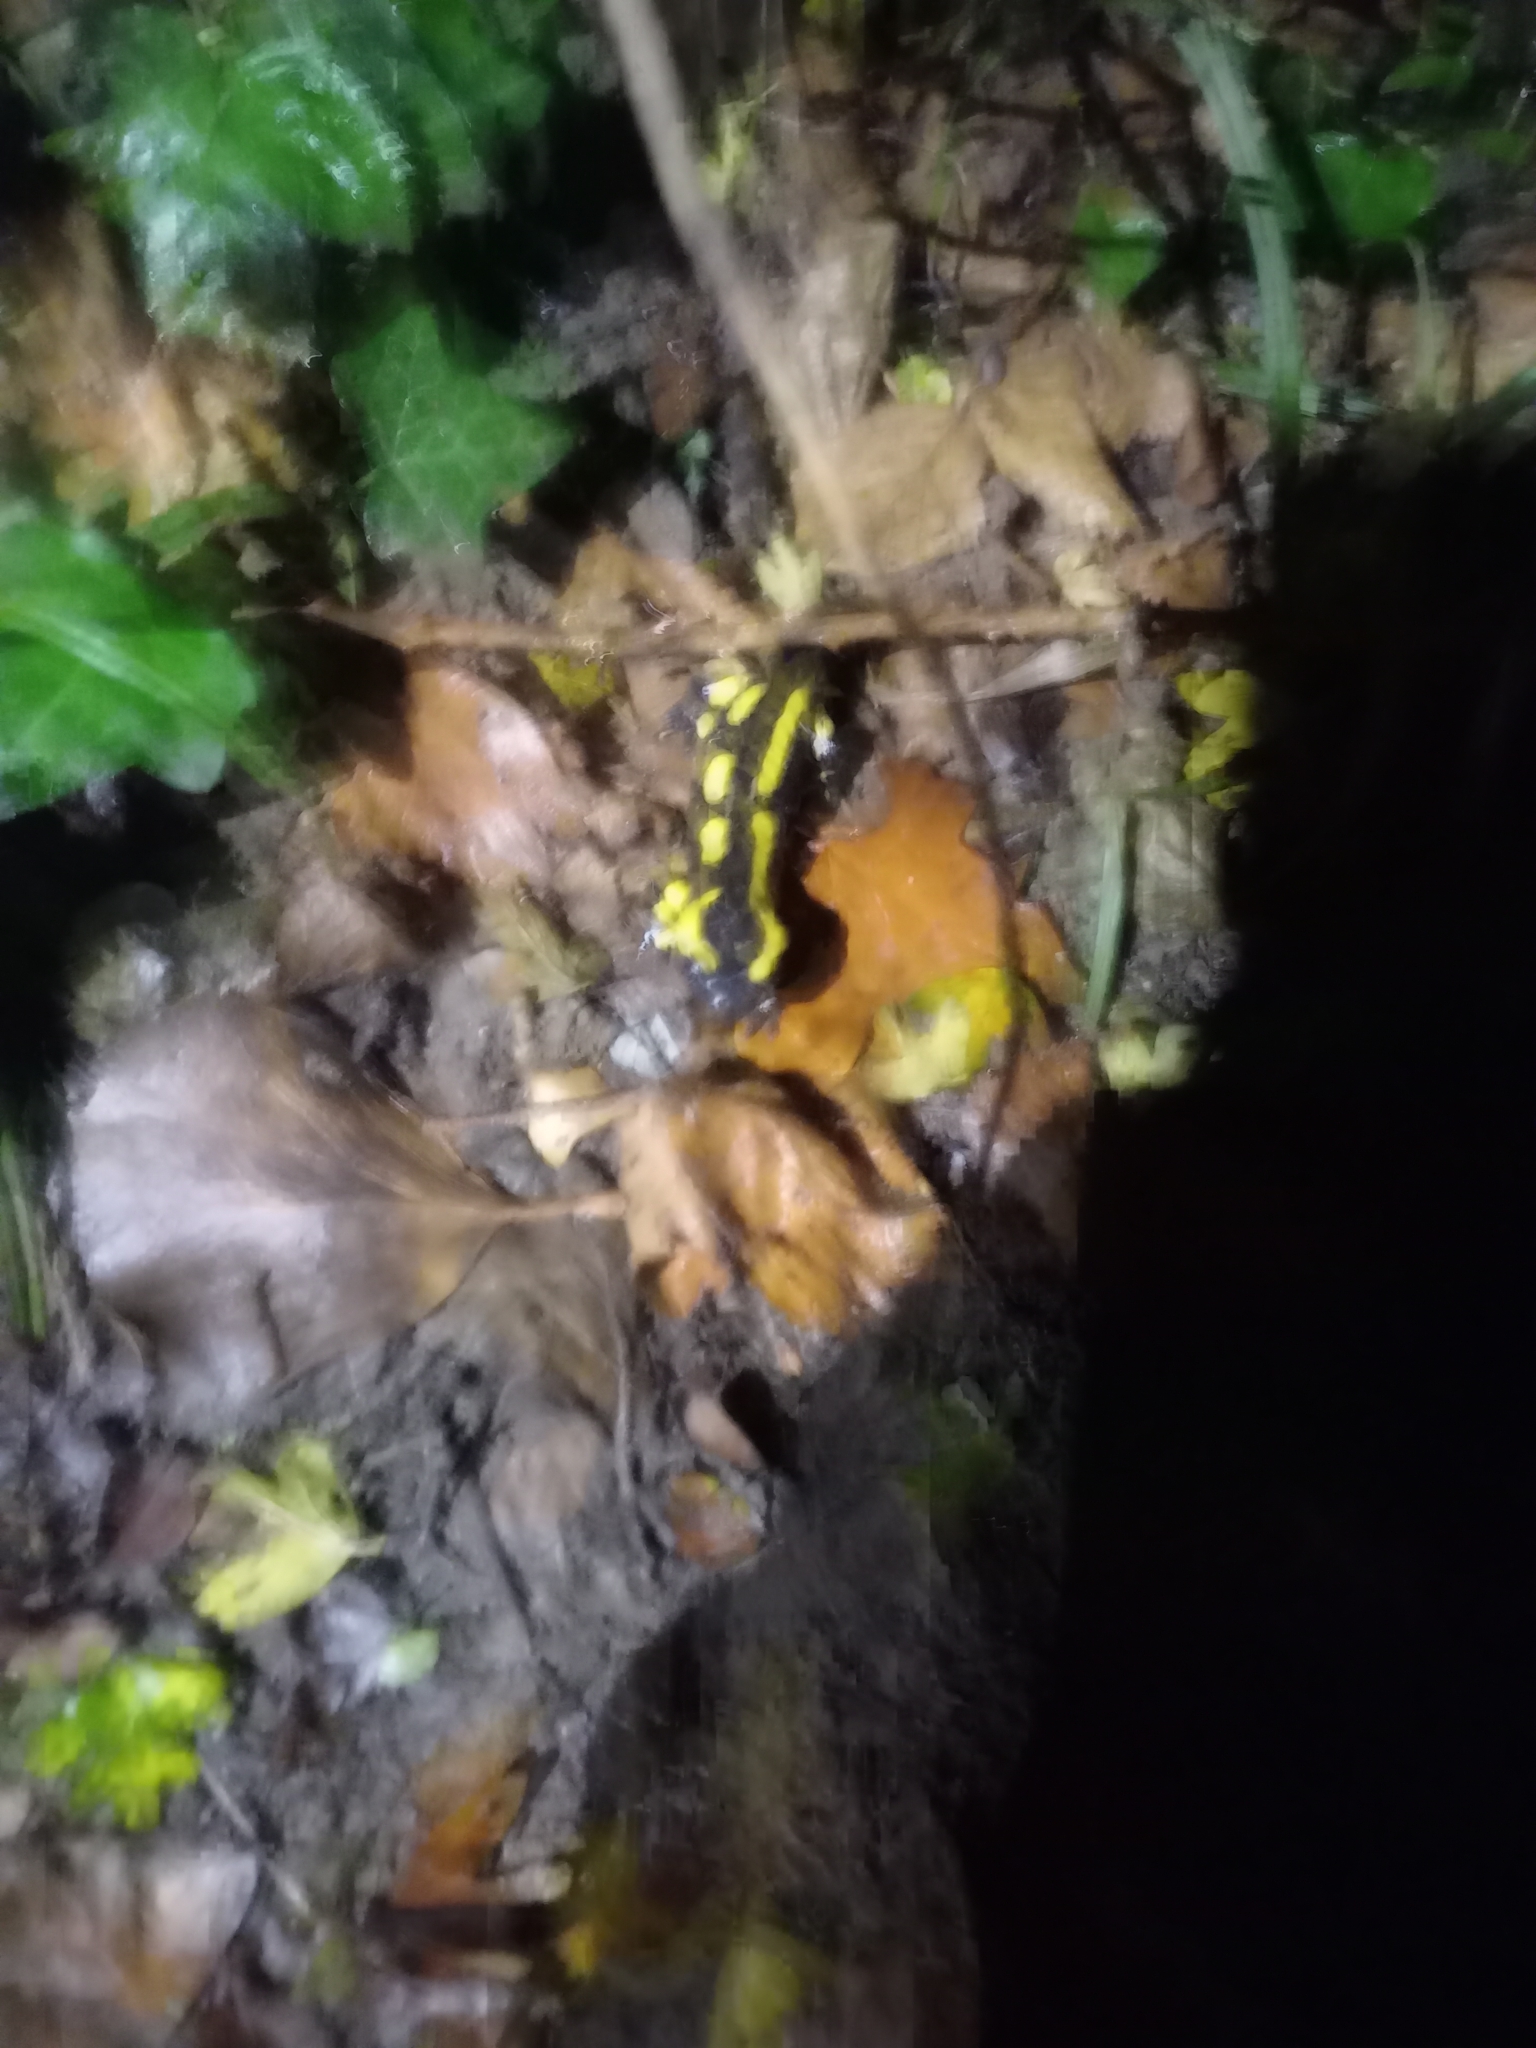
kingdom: Animalia
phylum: Chordata
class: Amphibia
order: Caudata
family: Salamandridae
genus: Salamandra
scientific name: Salamandra salamandra
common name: Fire salamander
